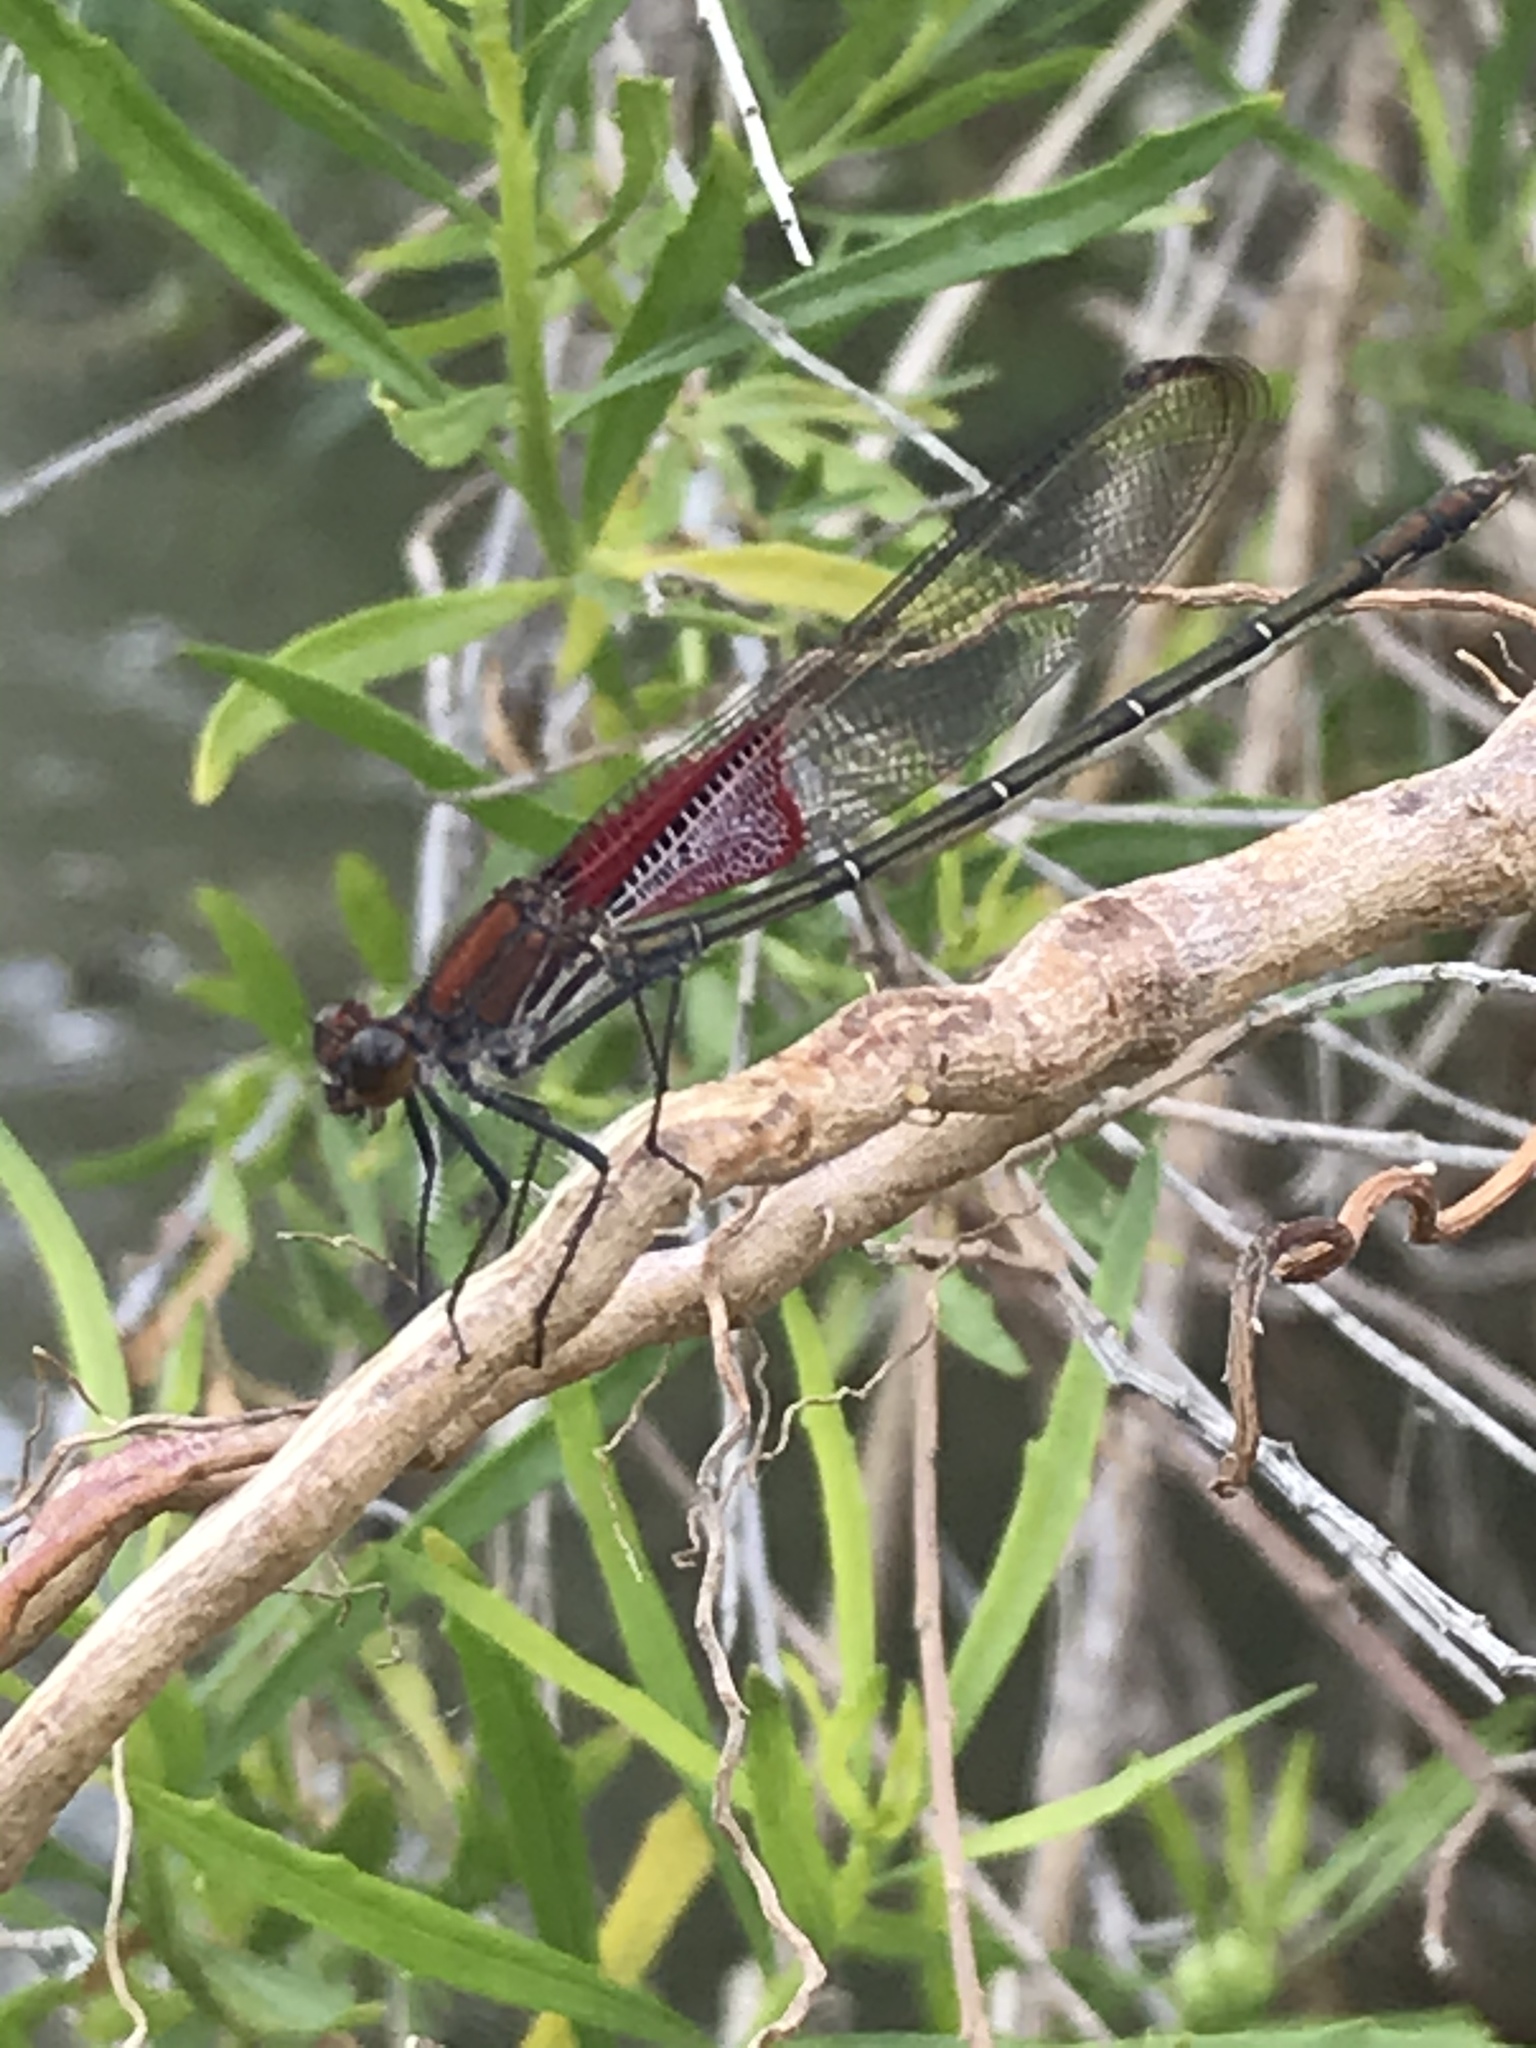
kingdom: Animalia
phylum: Arthropoda
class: Insecta
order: Odonata
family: Calopterygidae
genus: Hetaerina
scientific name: Hetaerina americana
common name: American rubyspot
